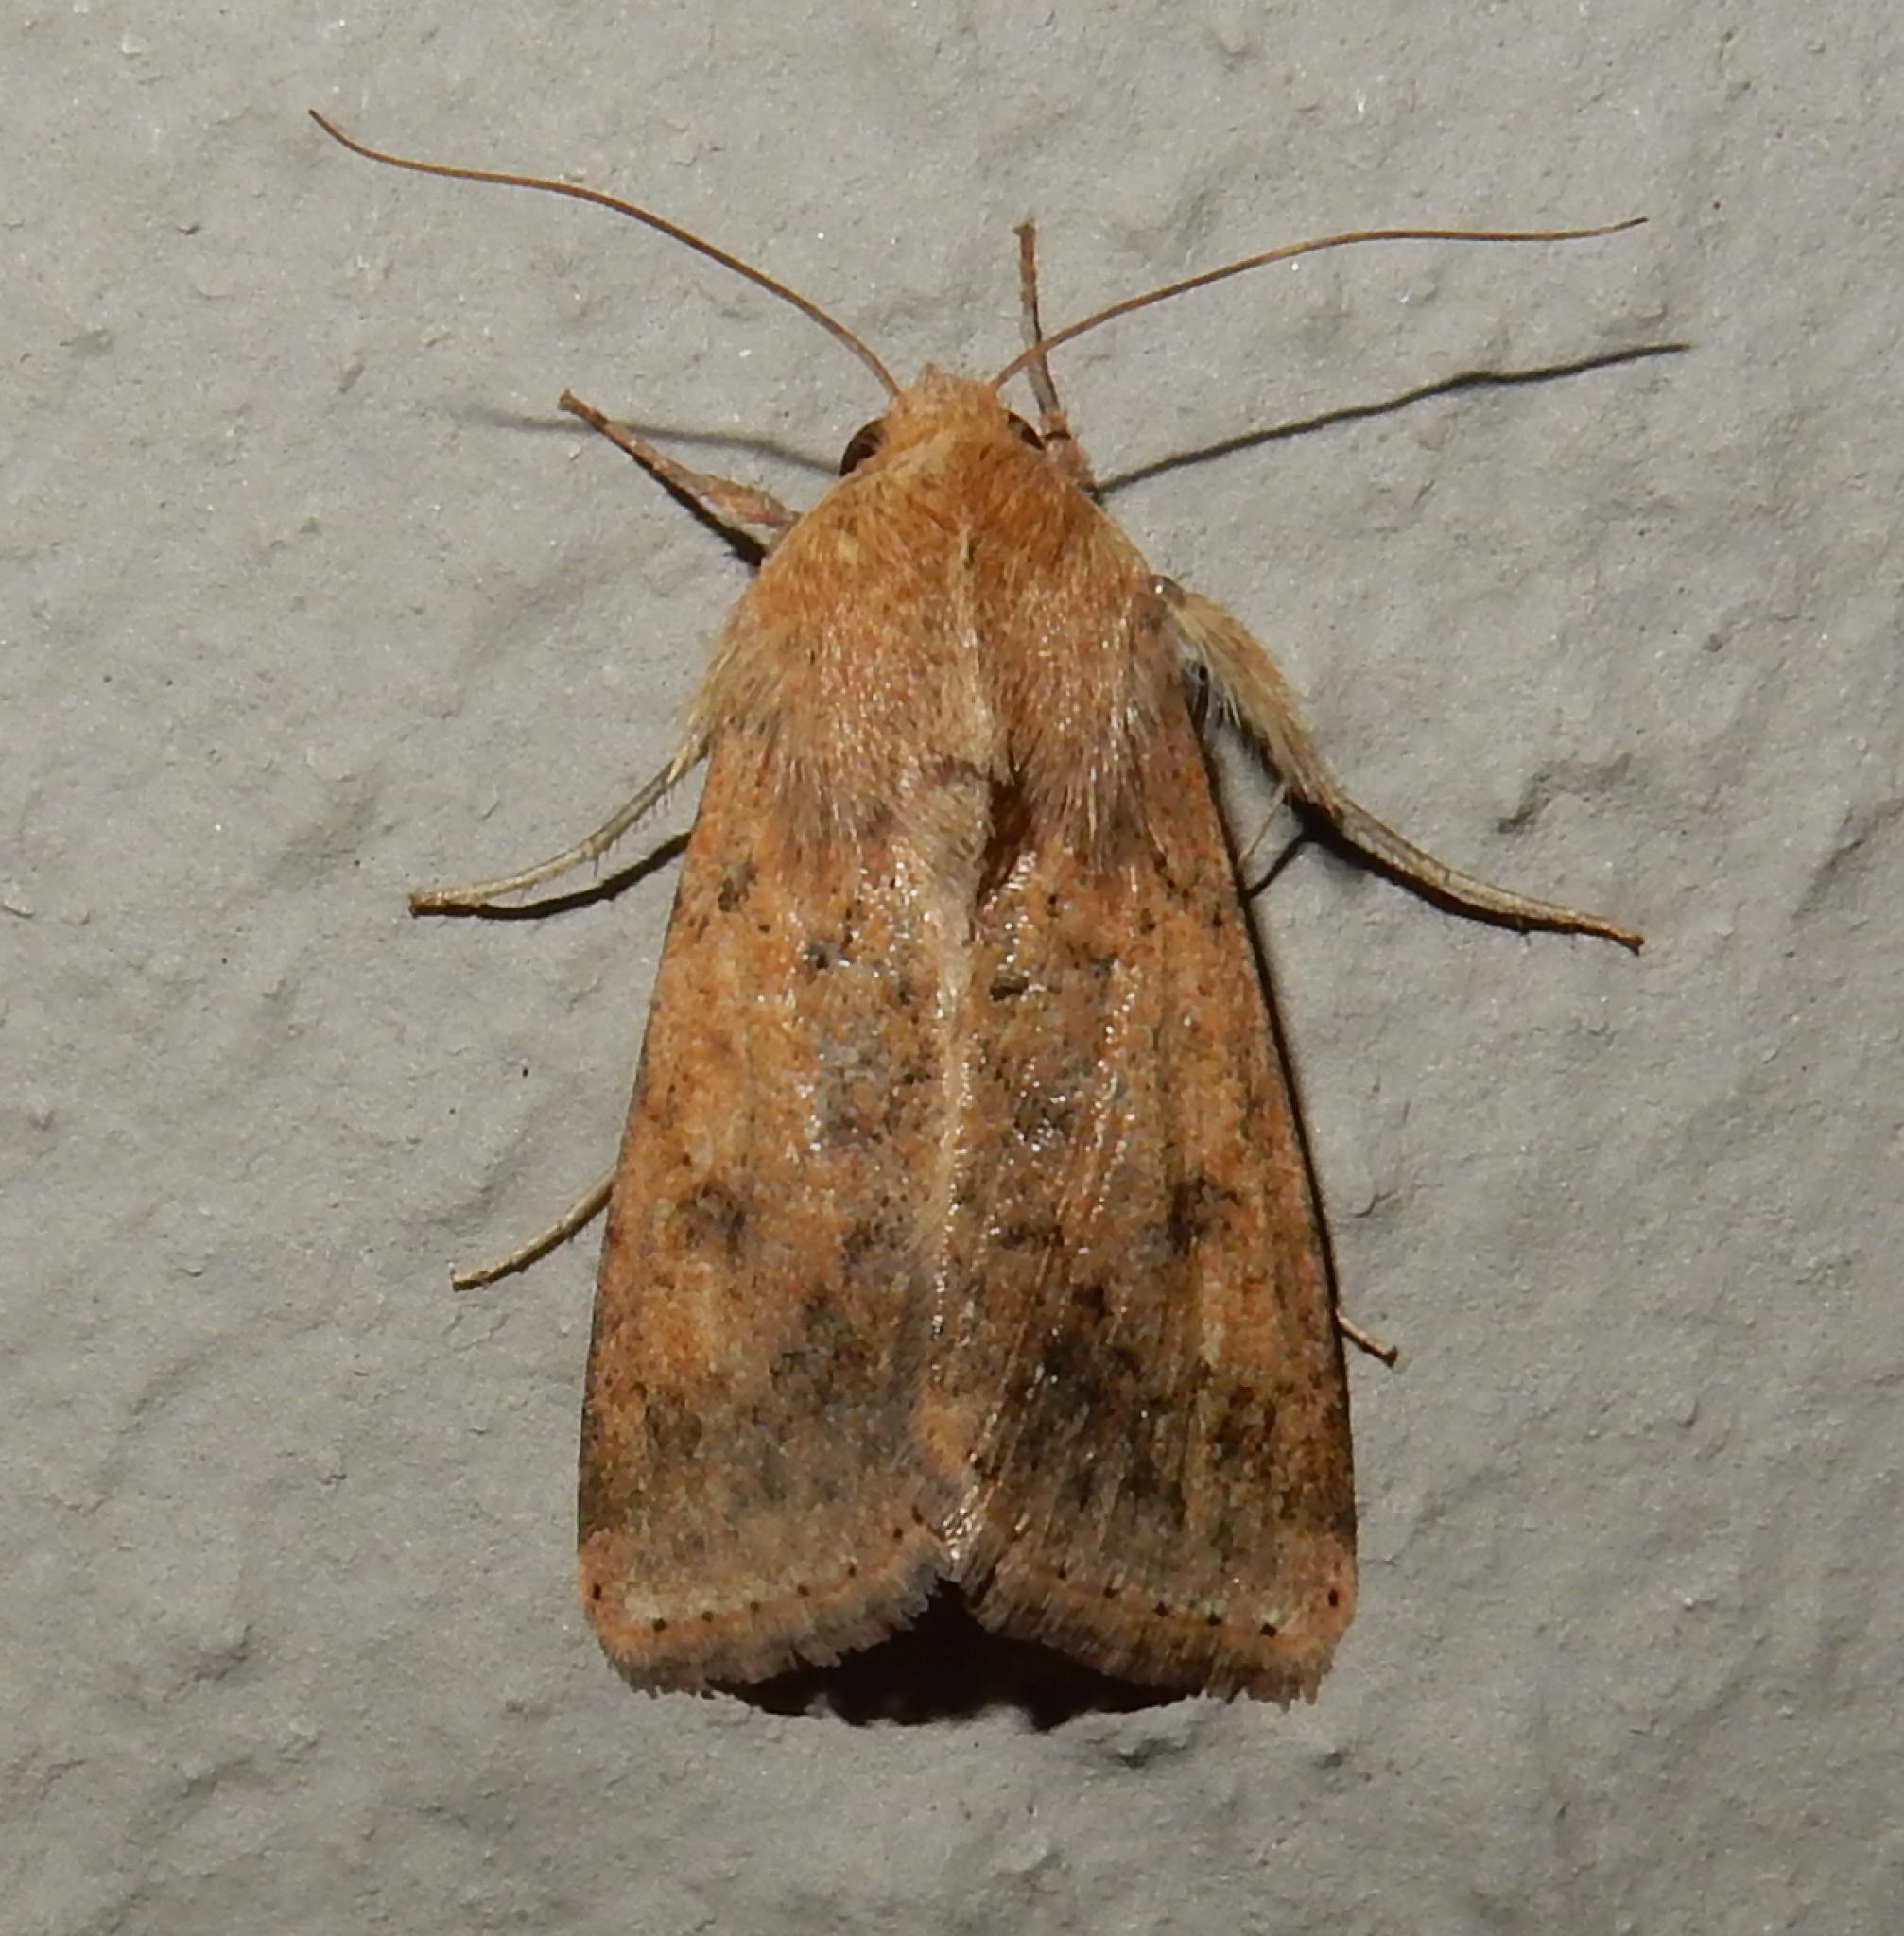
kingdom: Animalia
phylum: Arthropoda
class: Insecta
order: Lepidoptera
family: Noctuidae
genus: Helicoverpa
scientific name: Helicoverpa armigera
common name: Cotton bollworm
